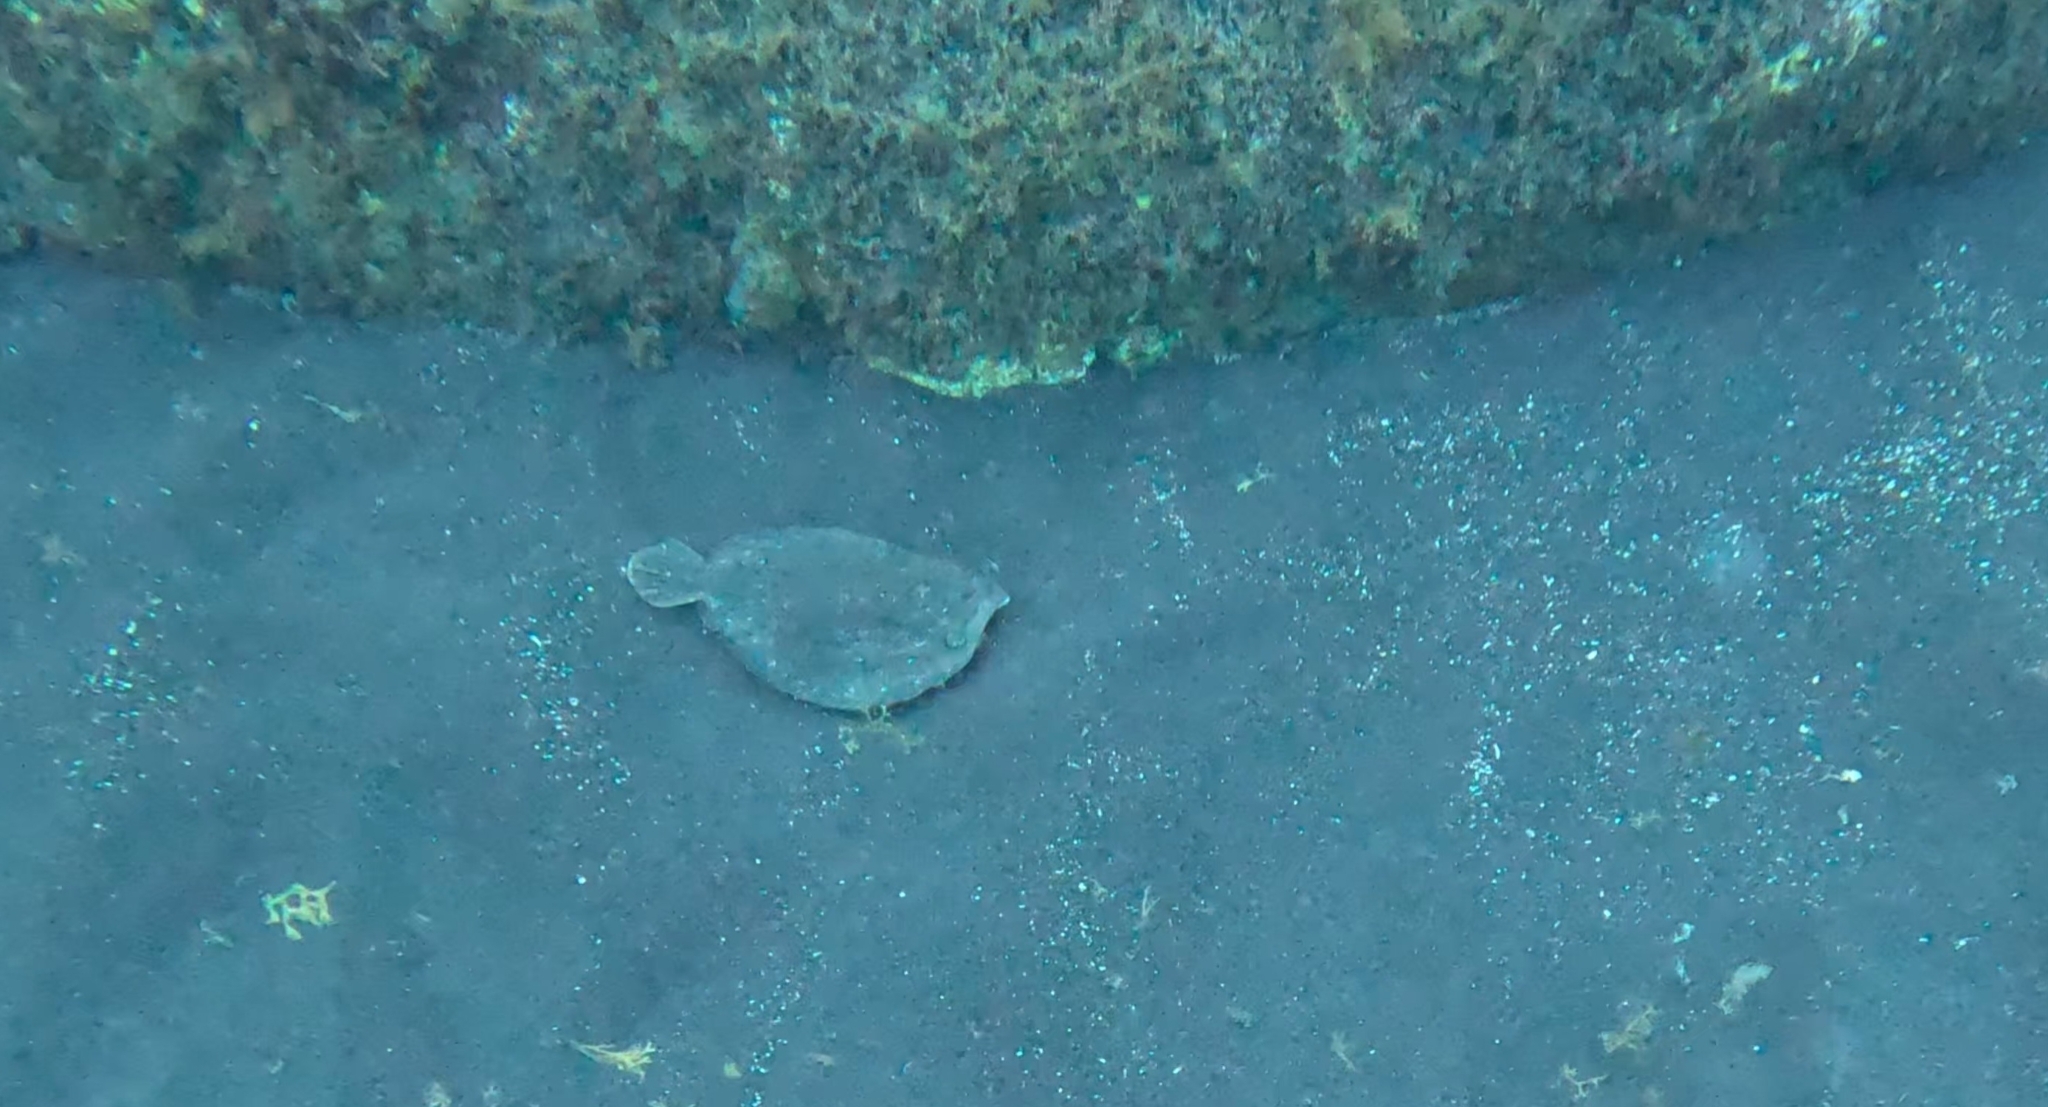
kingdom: Animalia
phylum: Chordata
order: Pleuronectiformes
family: Bothidae
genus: Bothus
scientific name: Bothus podas
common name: Wide-eyed flounder
